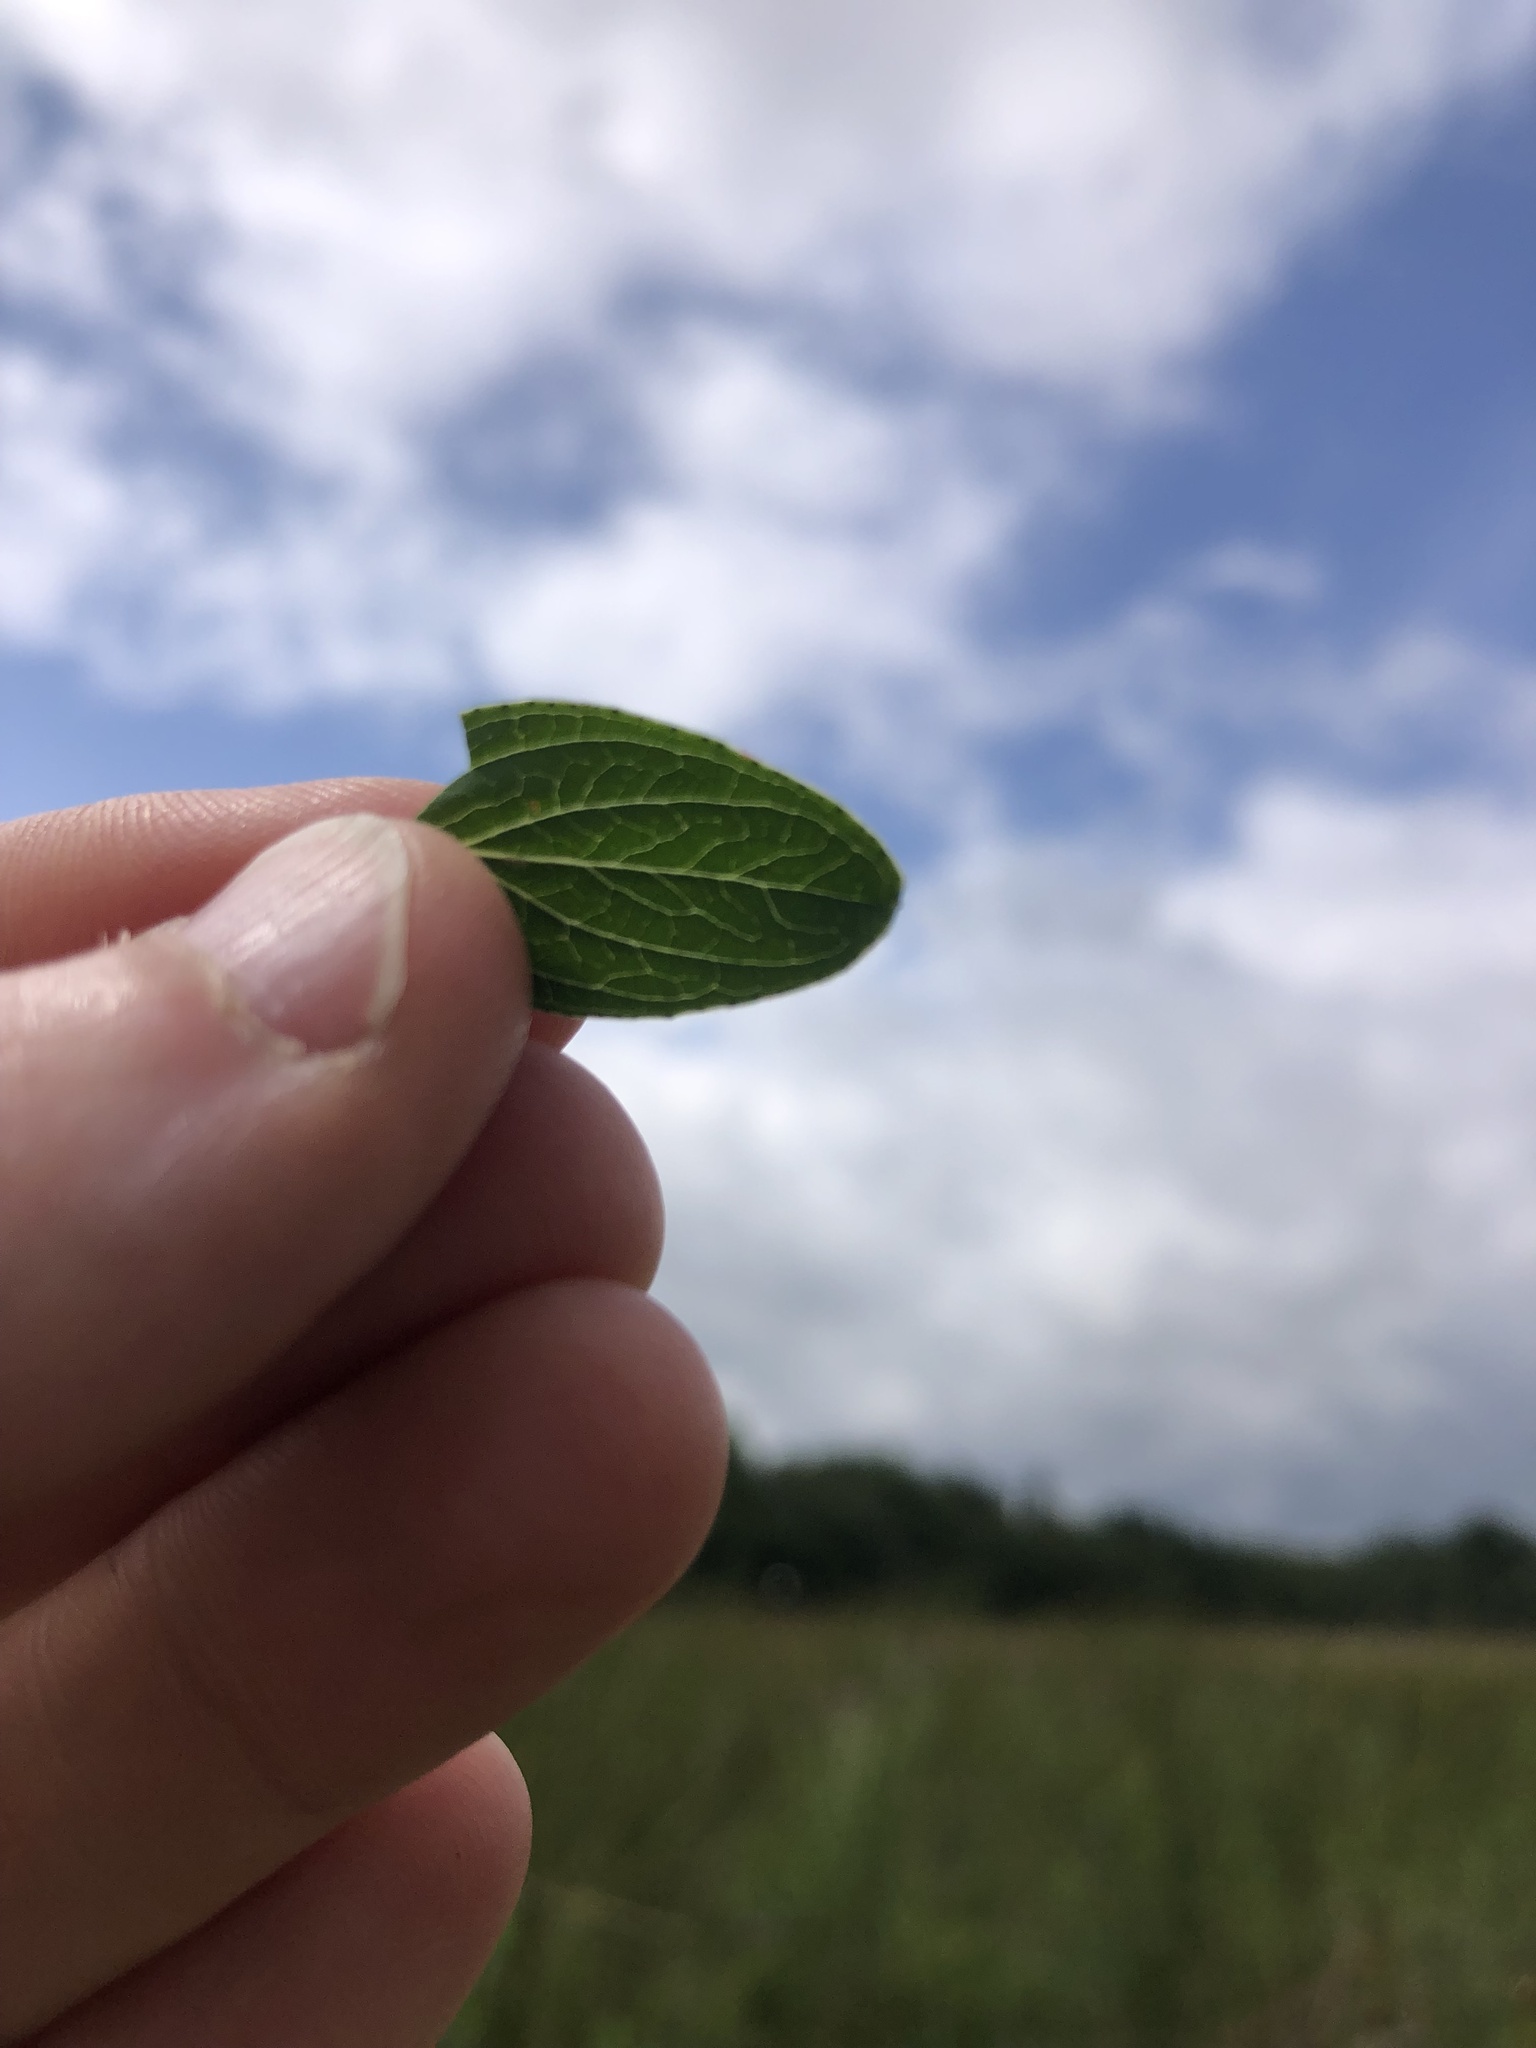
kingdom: Plantae
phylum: Tracheophyta
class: Magnoliopsida
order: Malpighiales
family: Hypericaceae
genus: Hypericum
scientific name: Hypericum maculatum
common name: Imperforate st. john's-wort
